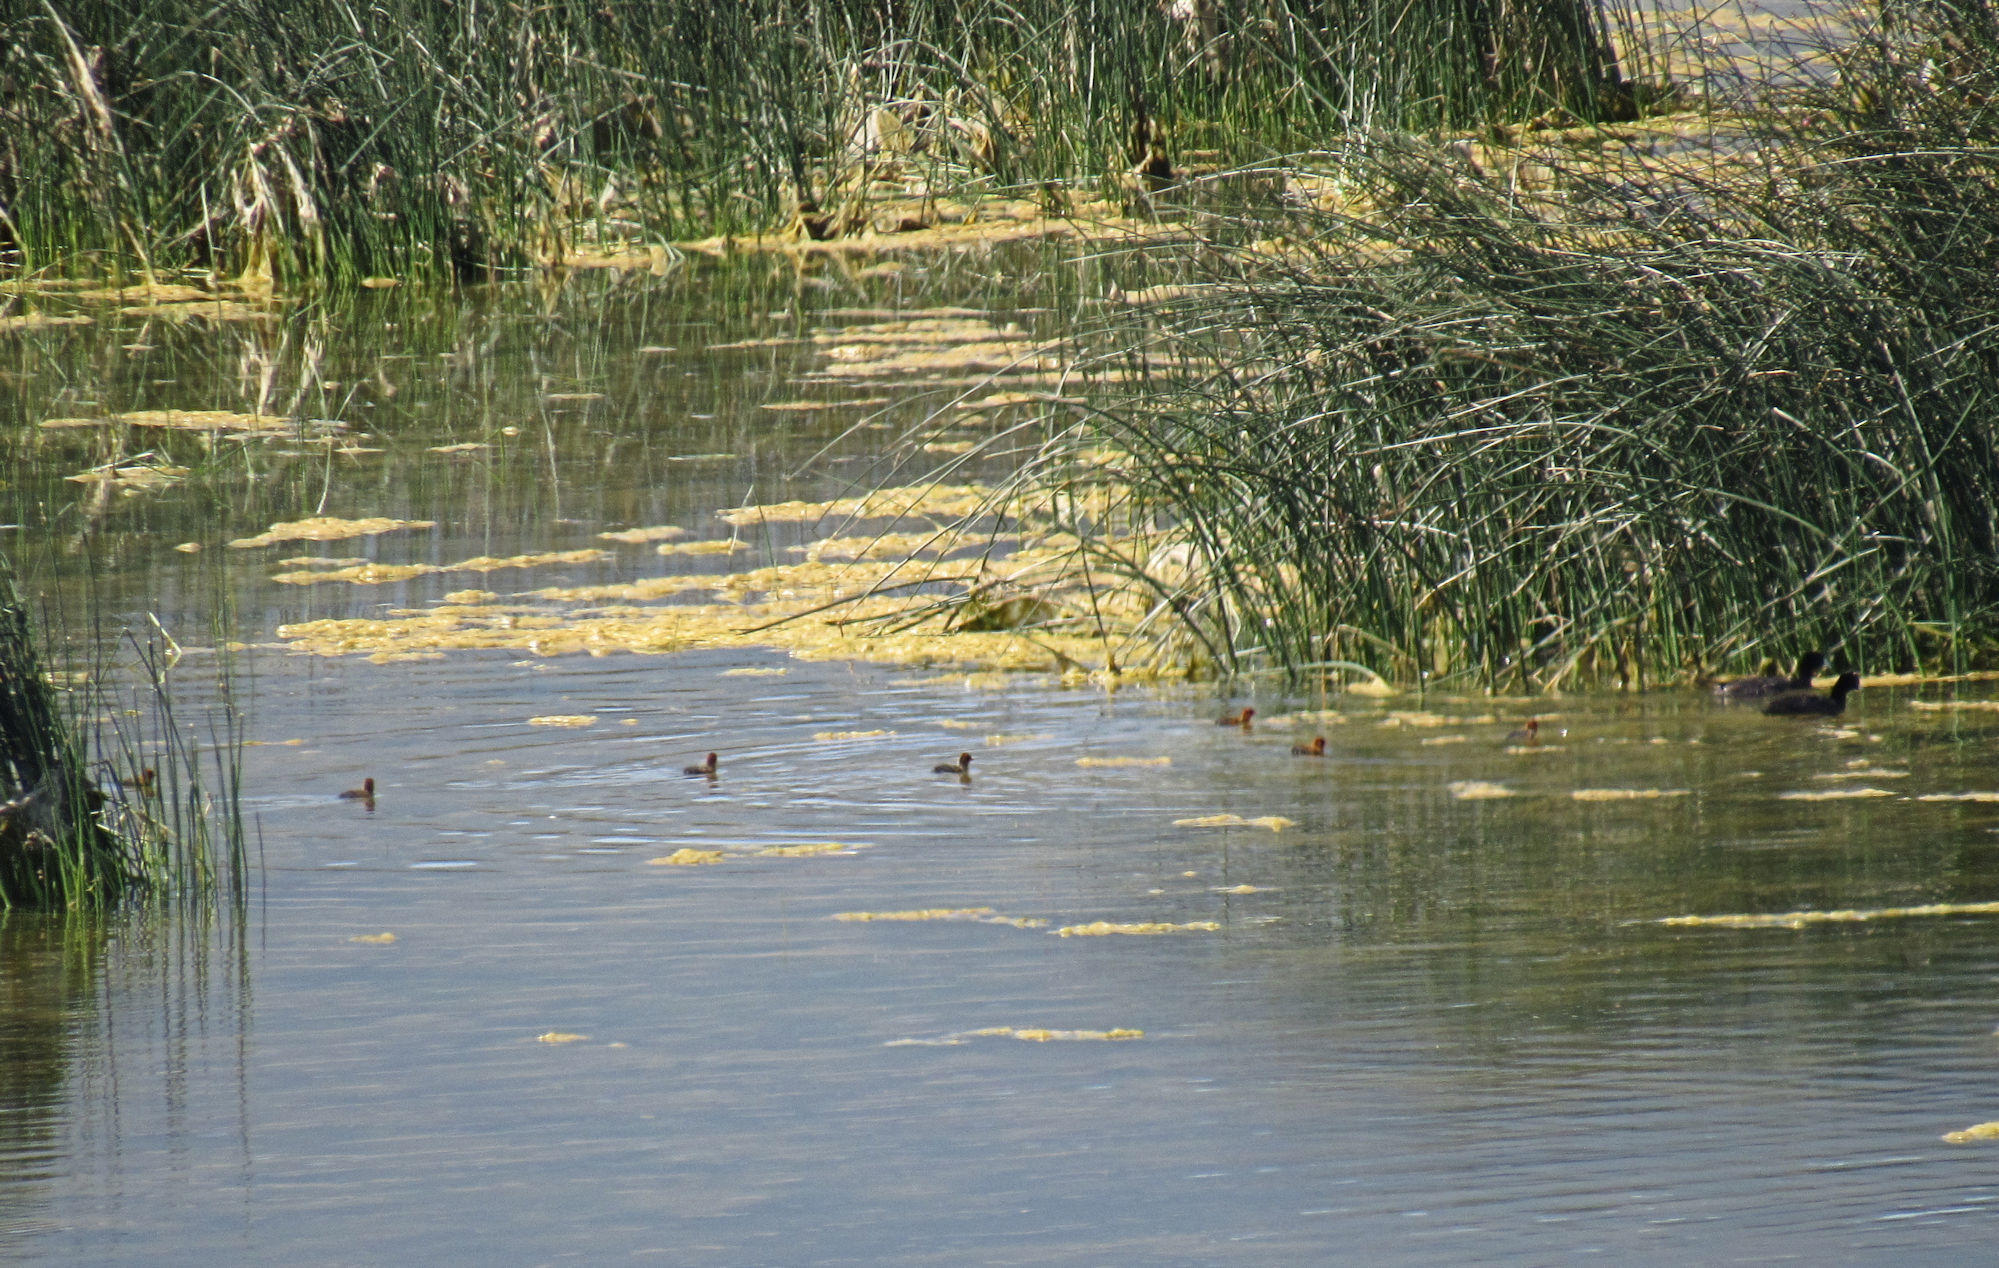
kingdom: Animalia
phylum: Chordata
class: Aves
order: Gruiformes
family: Rallidae
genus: Fulica
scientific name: Fulica americana
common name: American coot
